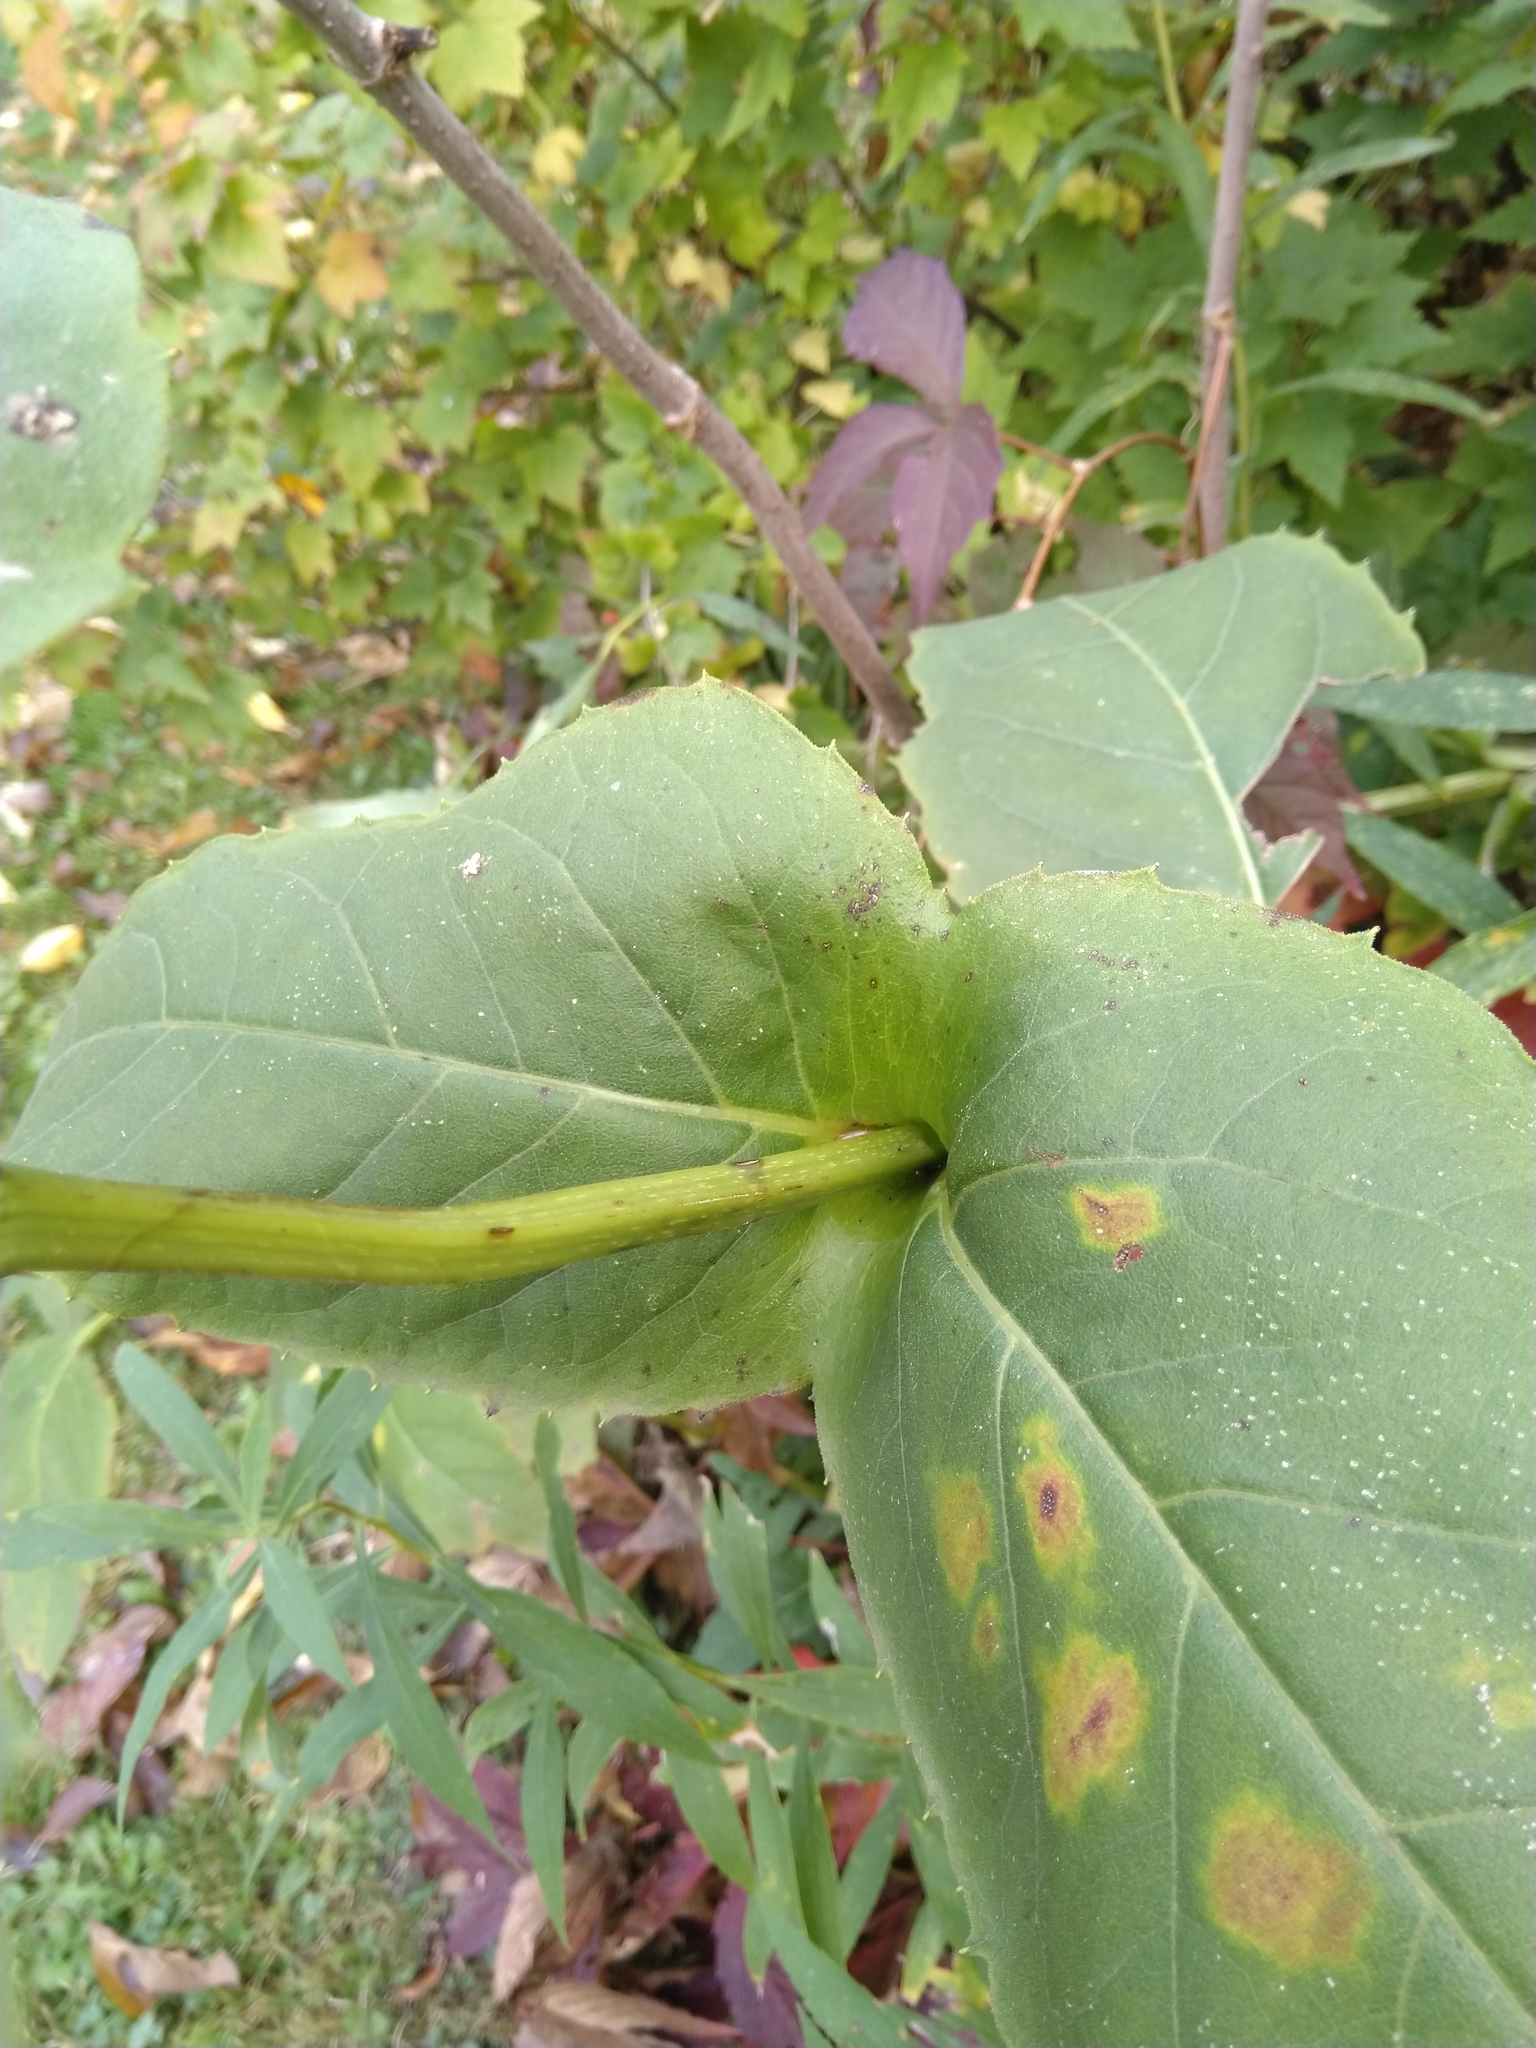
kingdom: Plantae
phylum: Tracheophyta
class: Magnoliopsida
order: Asterales
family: Asteraceae
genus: Silphium
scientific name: Silphium perfoliatum
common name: Cup-plant
